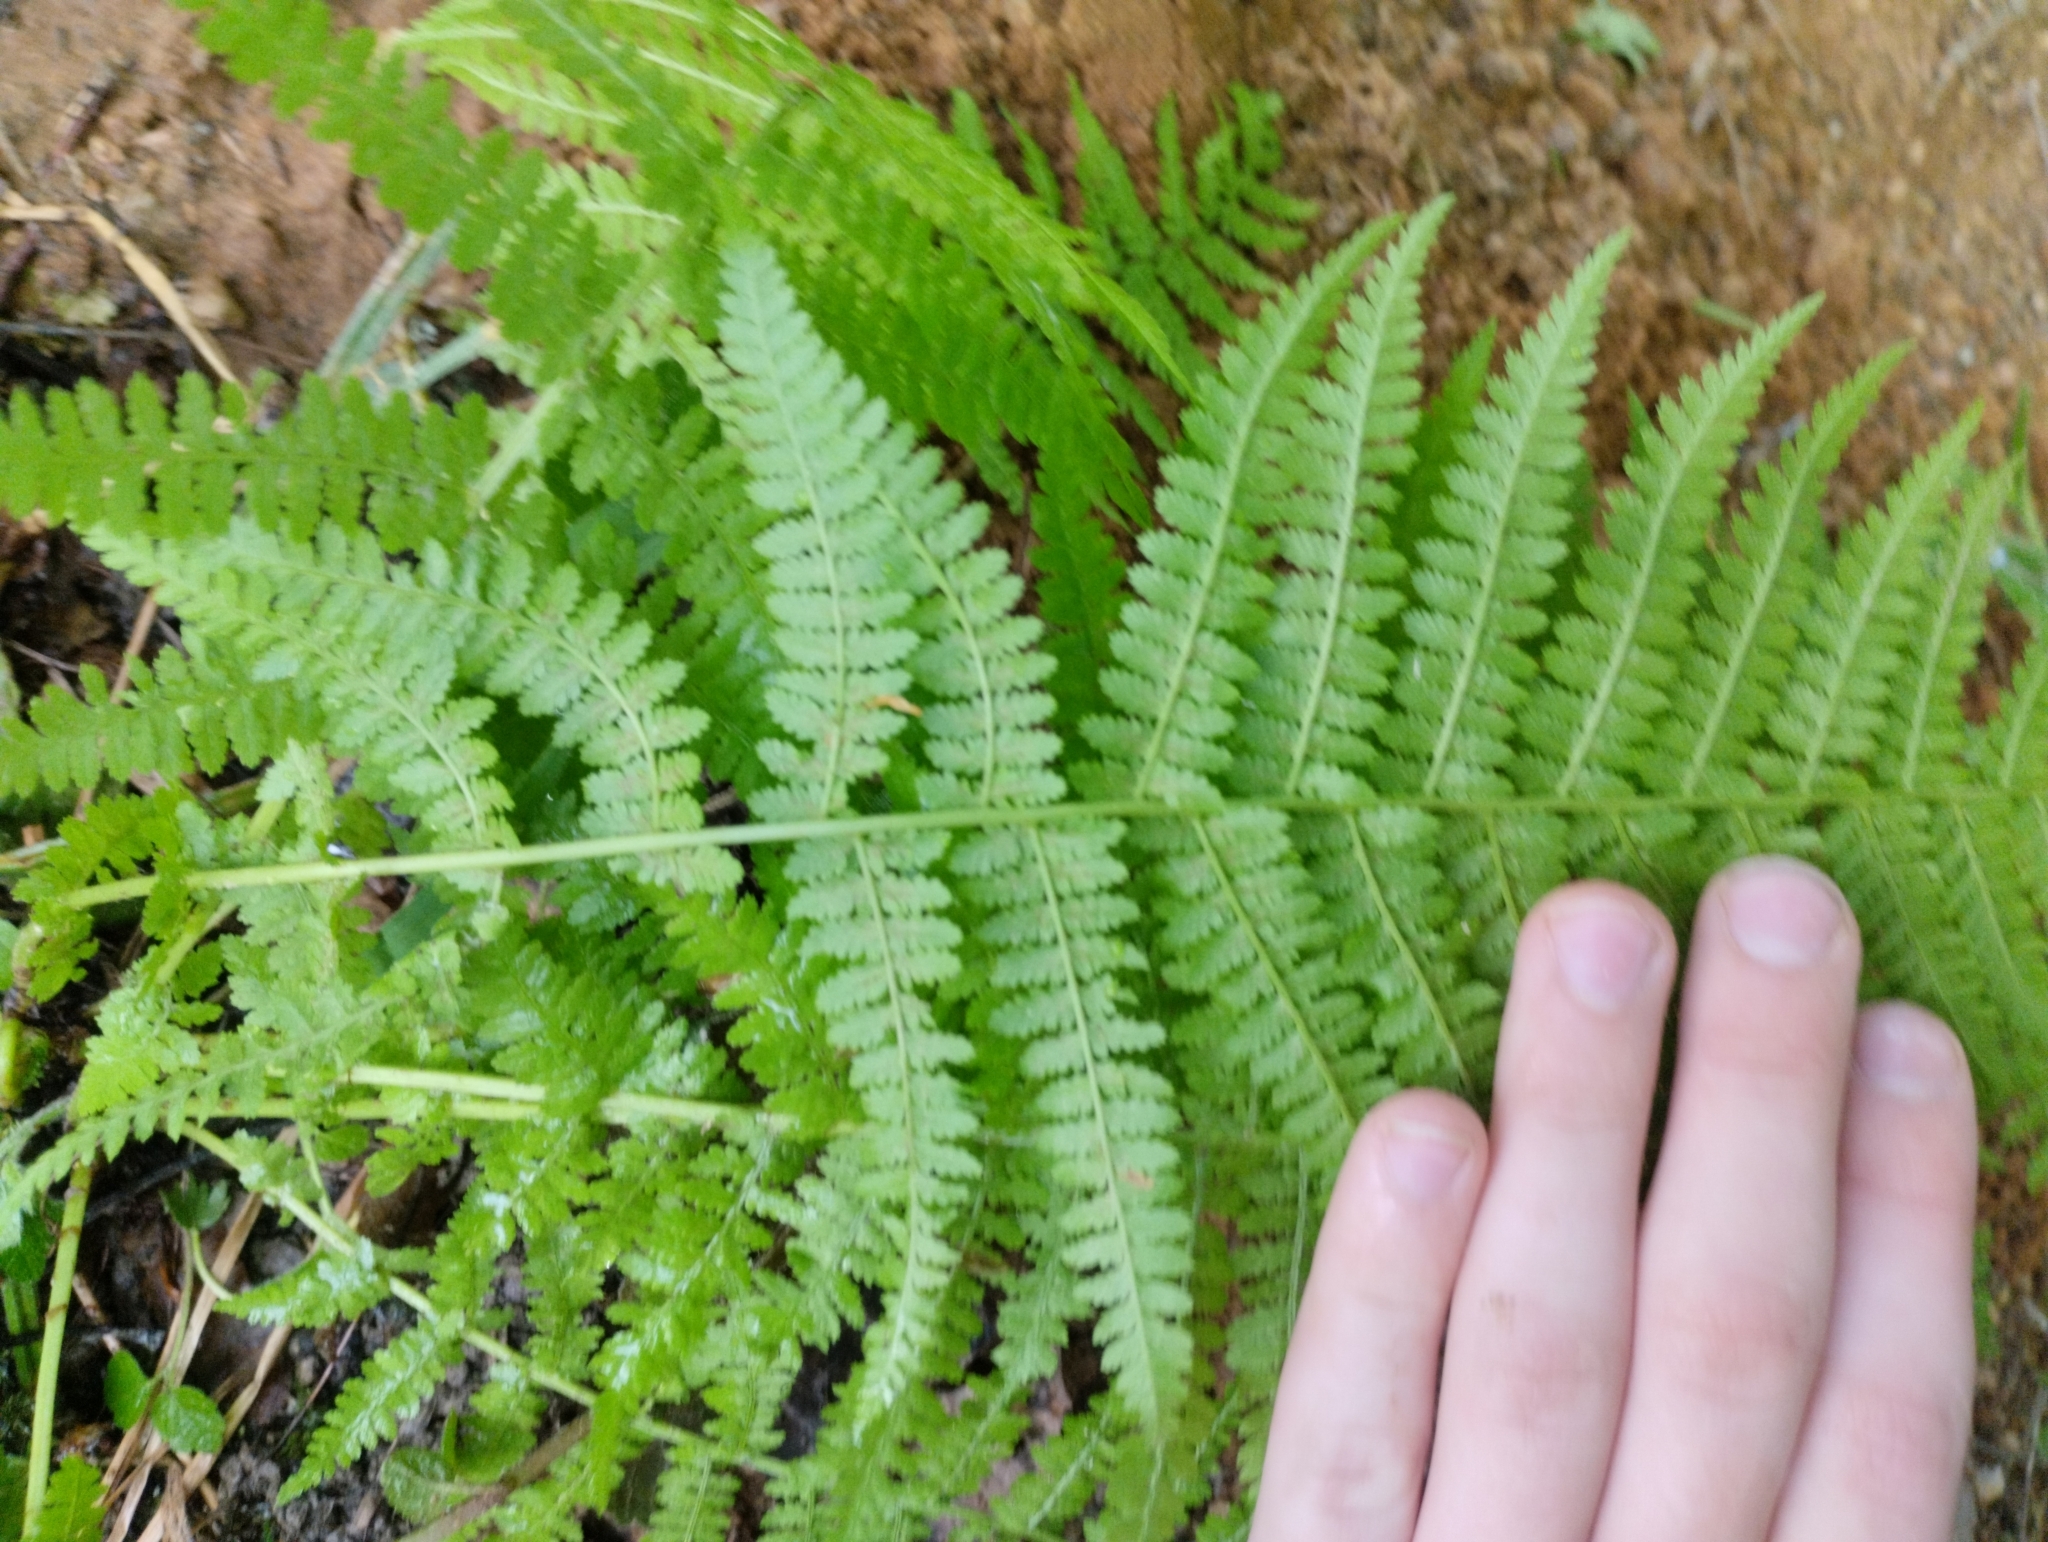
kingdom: Plantae
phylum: Tracheophyta
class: Polypodiopsida
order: Polypodiales
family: Athyriaceae
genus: Athyrium
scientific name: Athyrium filix-femina
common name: Lady fern
